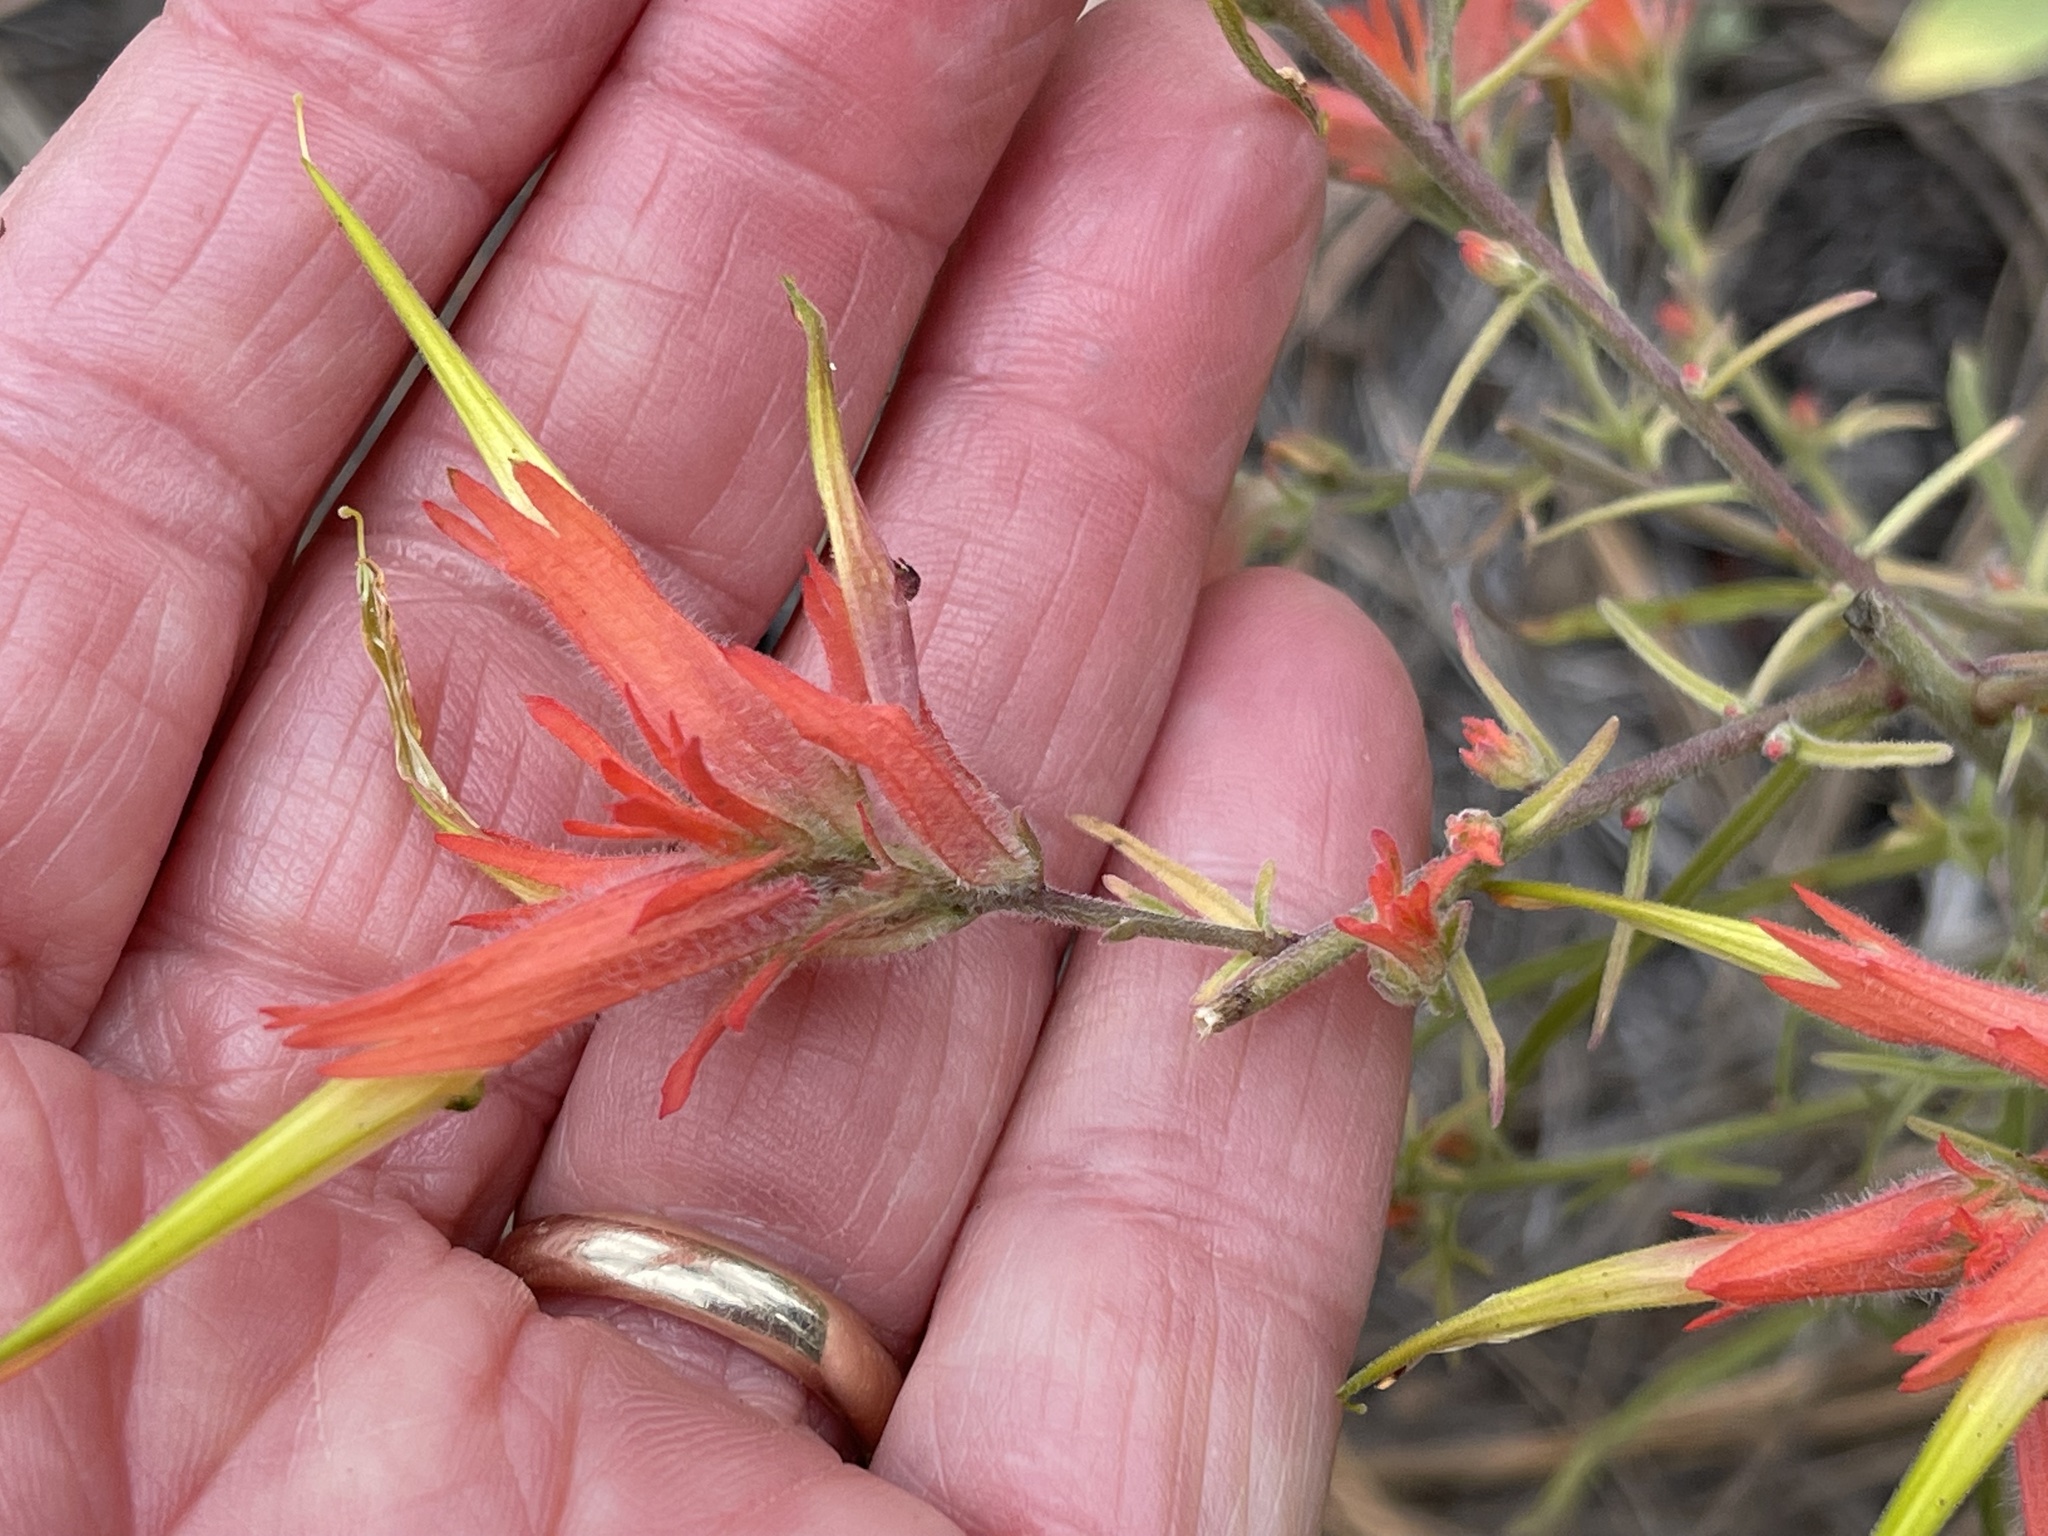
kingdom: Plantae
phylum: Tracheophyta
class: Magnoliopsida
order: Lamiales
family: Orobanchaceae
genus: Castilleja
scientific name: Castilleja linariifolia
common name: Wyoming paintbrush
